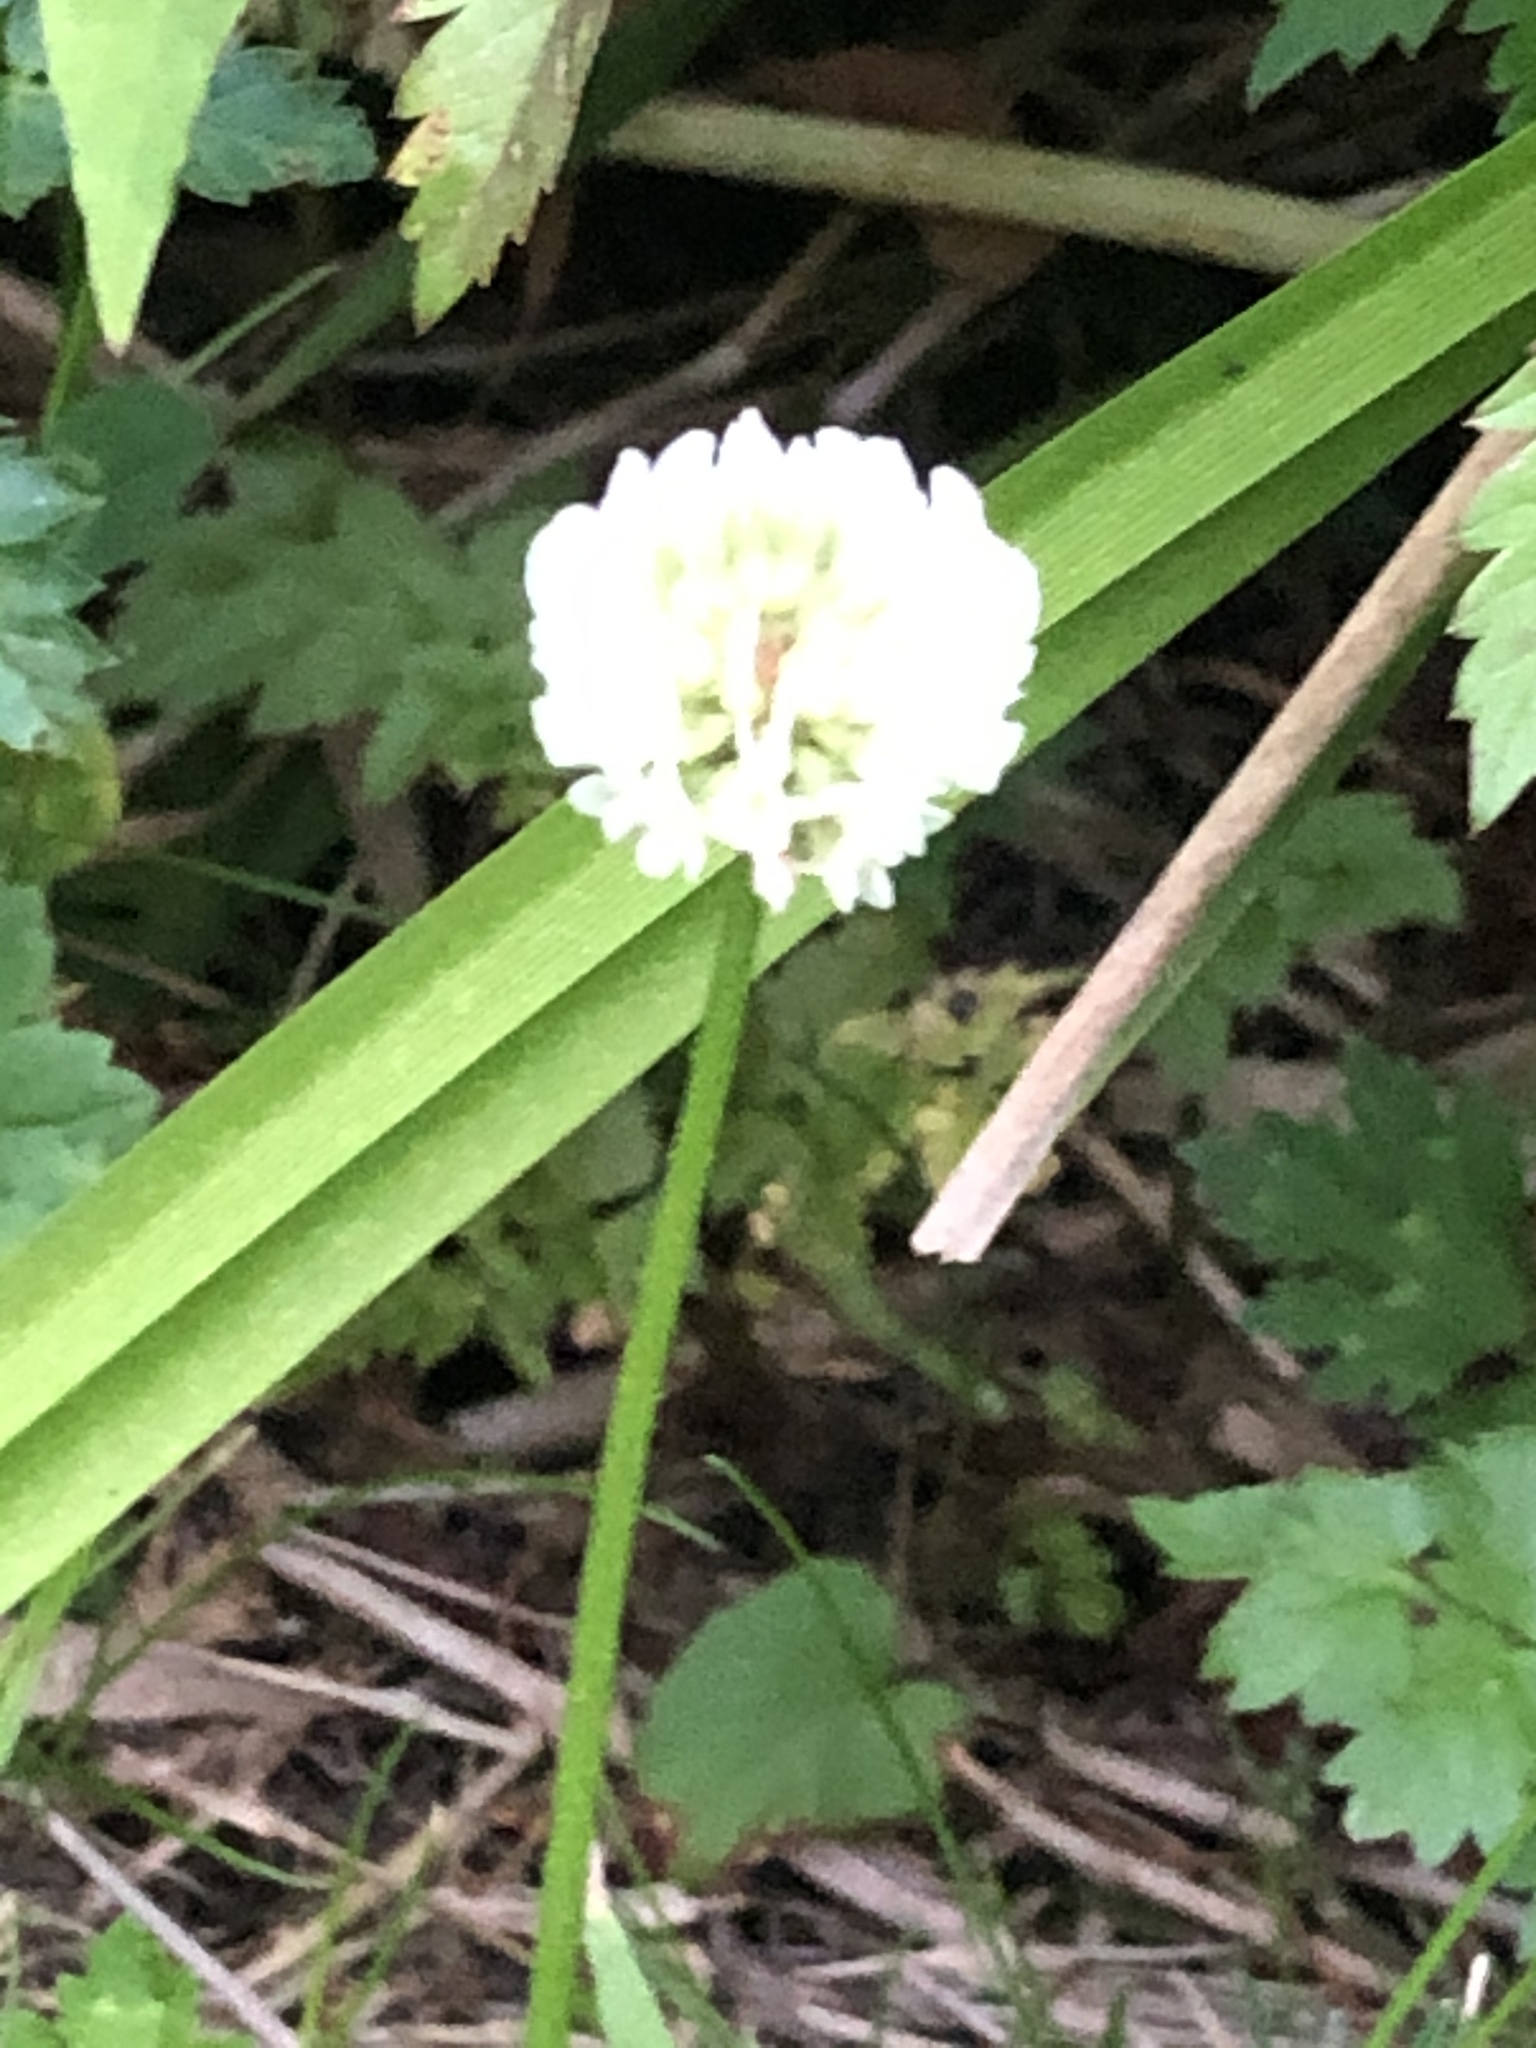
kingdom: Plantae
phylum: Tracheophyta
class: Magnoliopsida
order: Fabales
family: Fabaceae
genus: Trifolium
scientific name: Trifolium repens
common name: White clover
